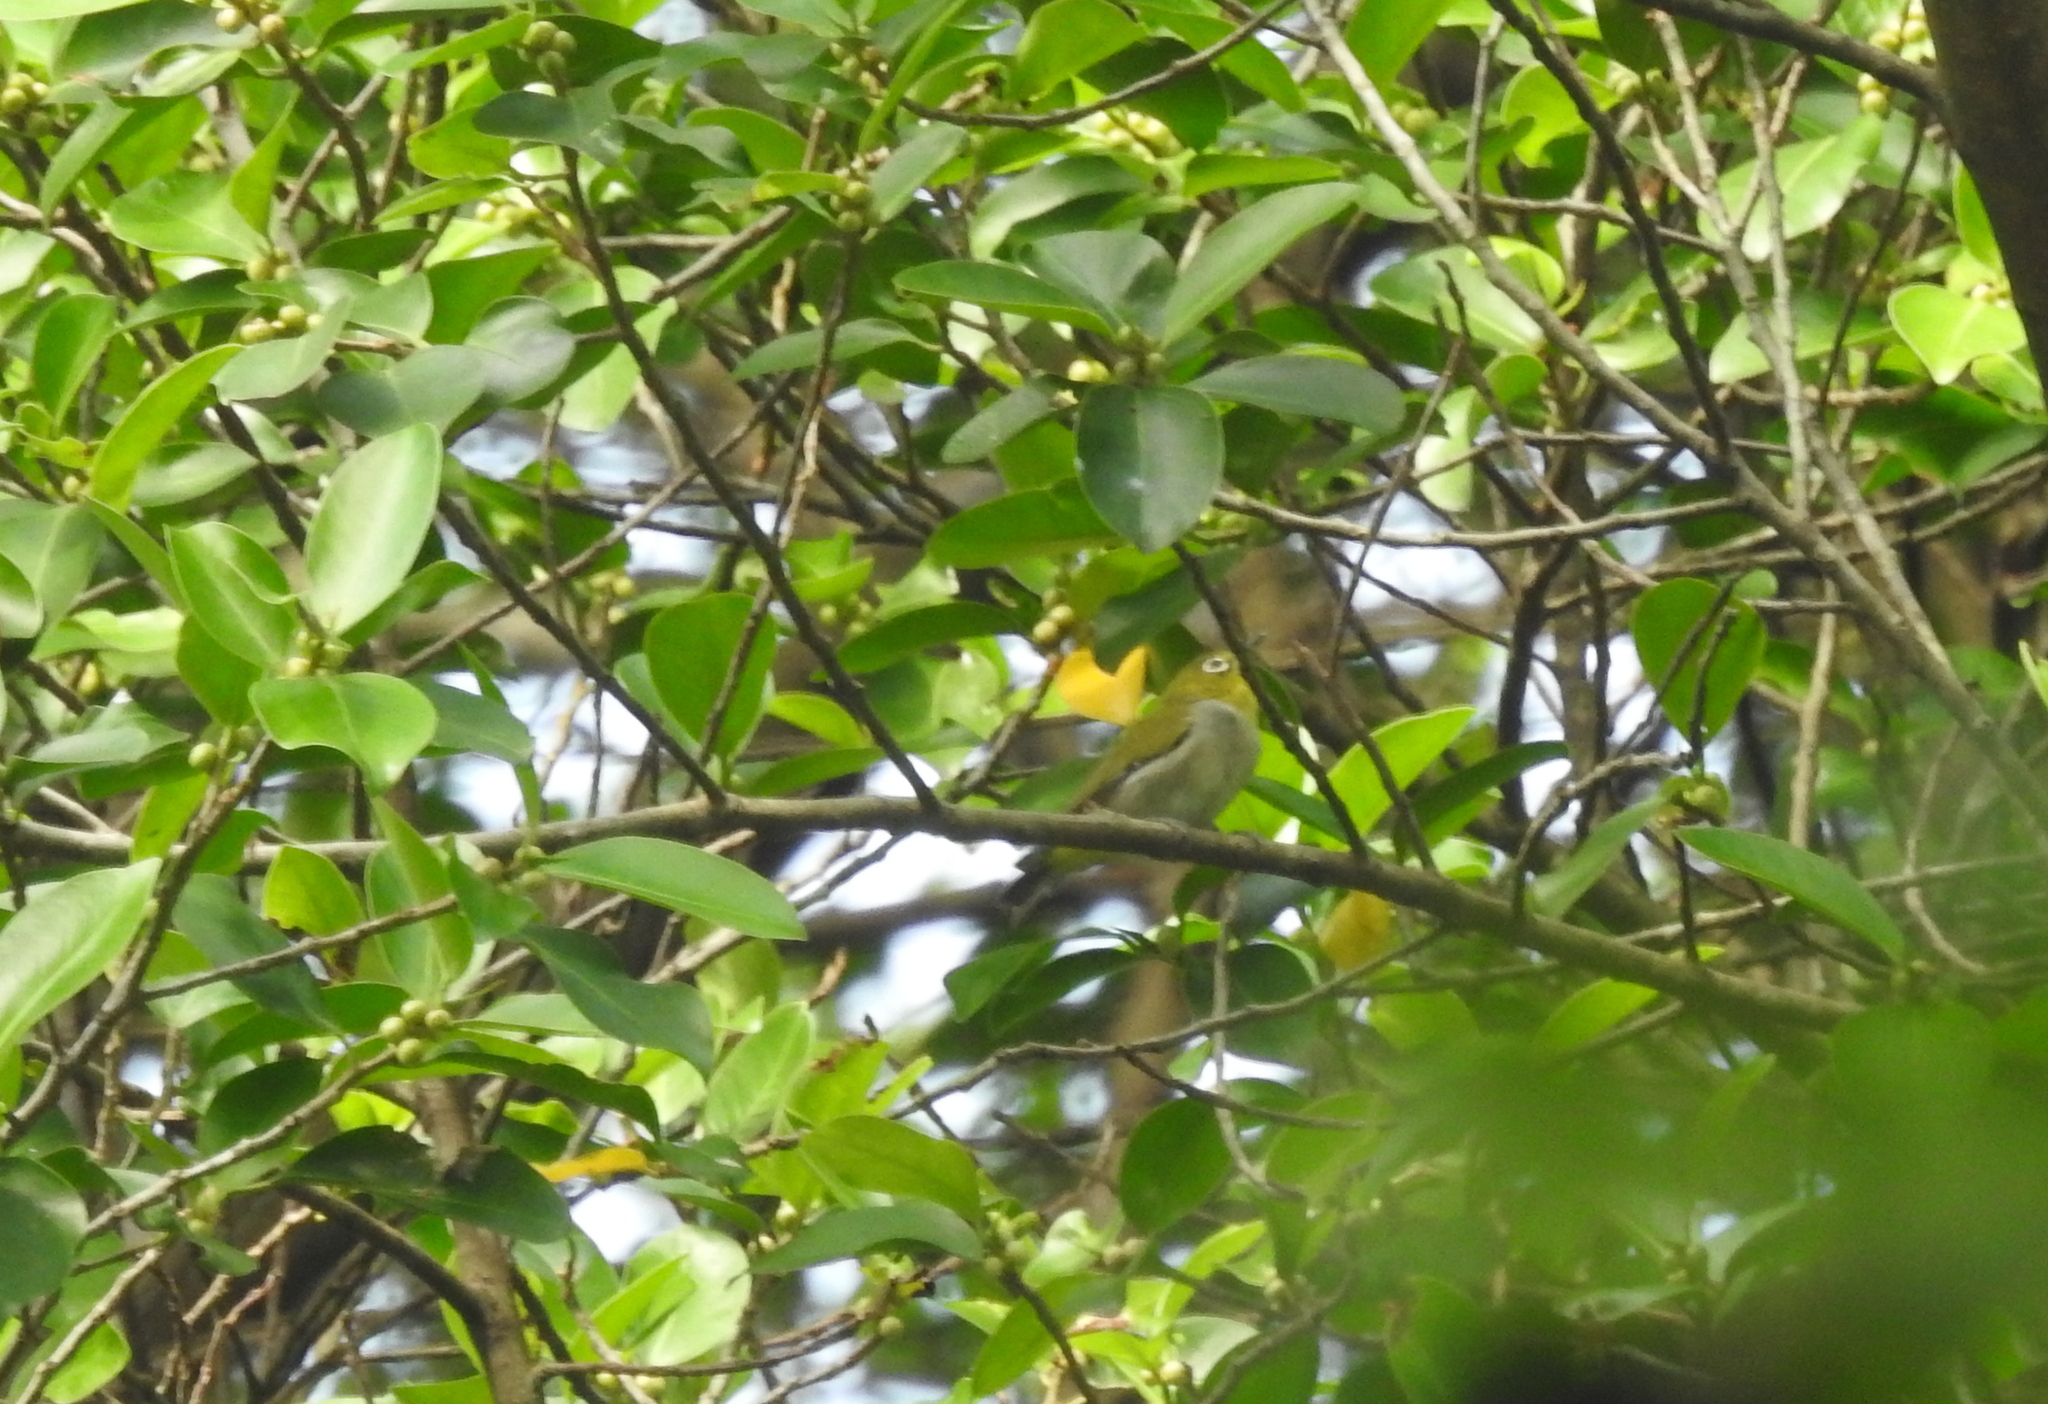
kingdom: Animalia
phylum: Chordata
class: Aves
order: Passeriformes
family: Zosteropidae
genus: Zosterops
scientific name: Zosterops simplex
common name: Swinhoe's white-eye
